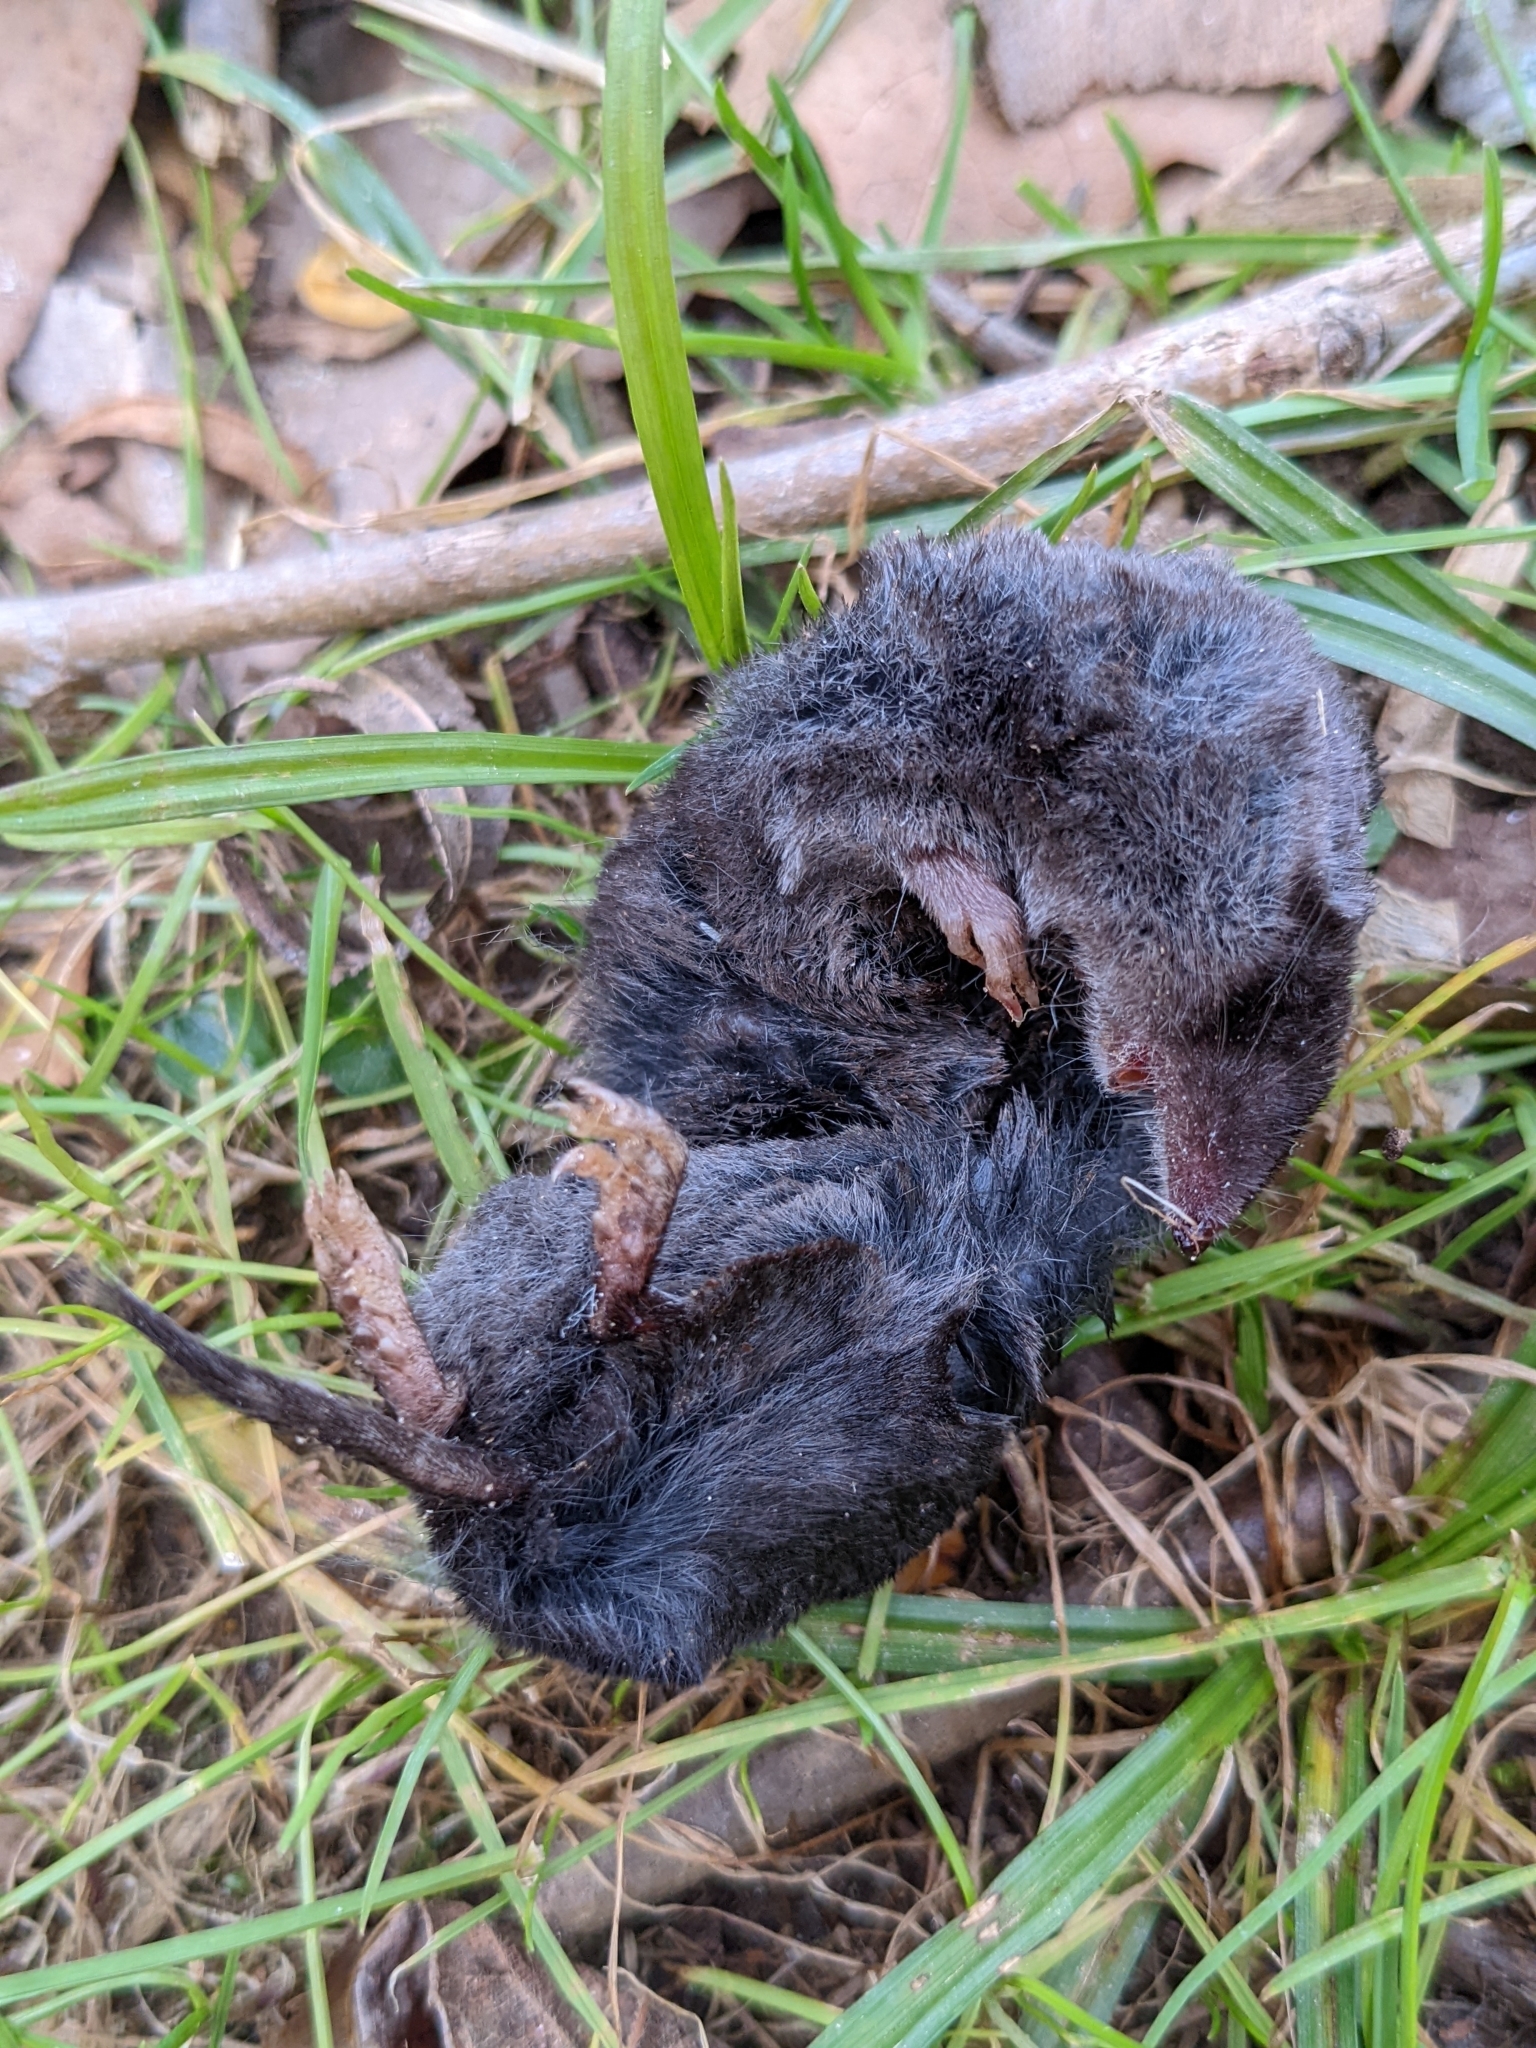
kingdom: Animalia
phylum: Chordata
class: Mammalia
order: Soricomorpha
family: Soricidae
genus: Blarina
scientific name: Blarina brevicauda
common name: Northern short-tailed shrew
